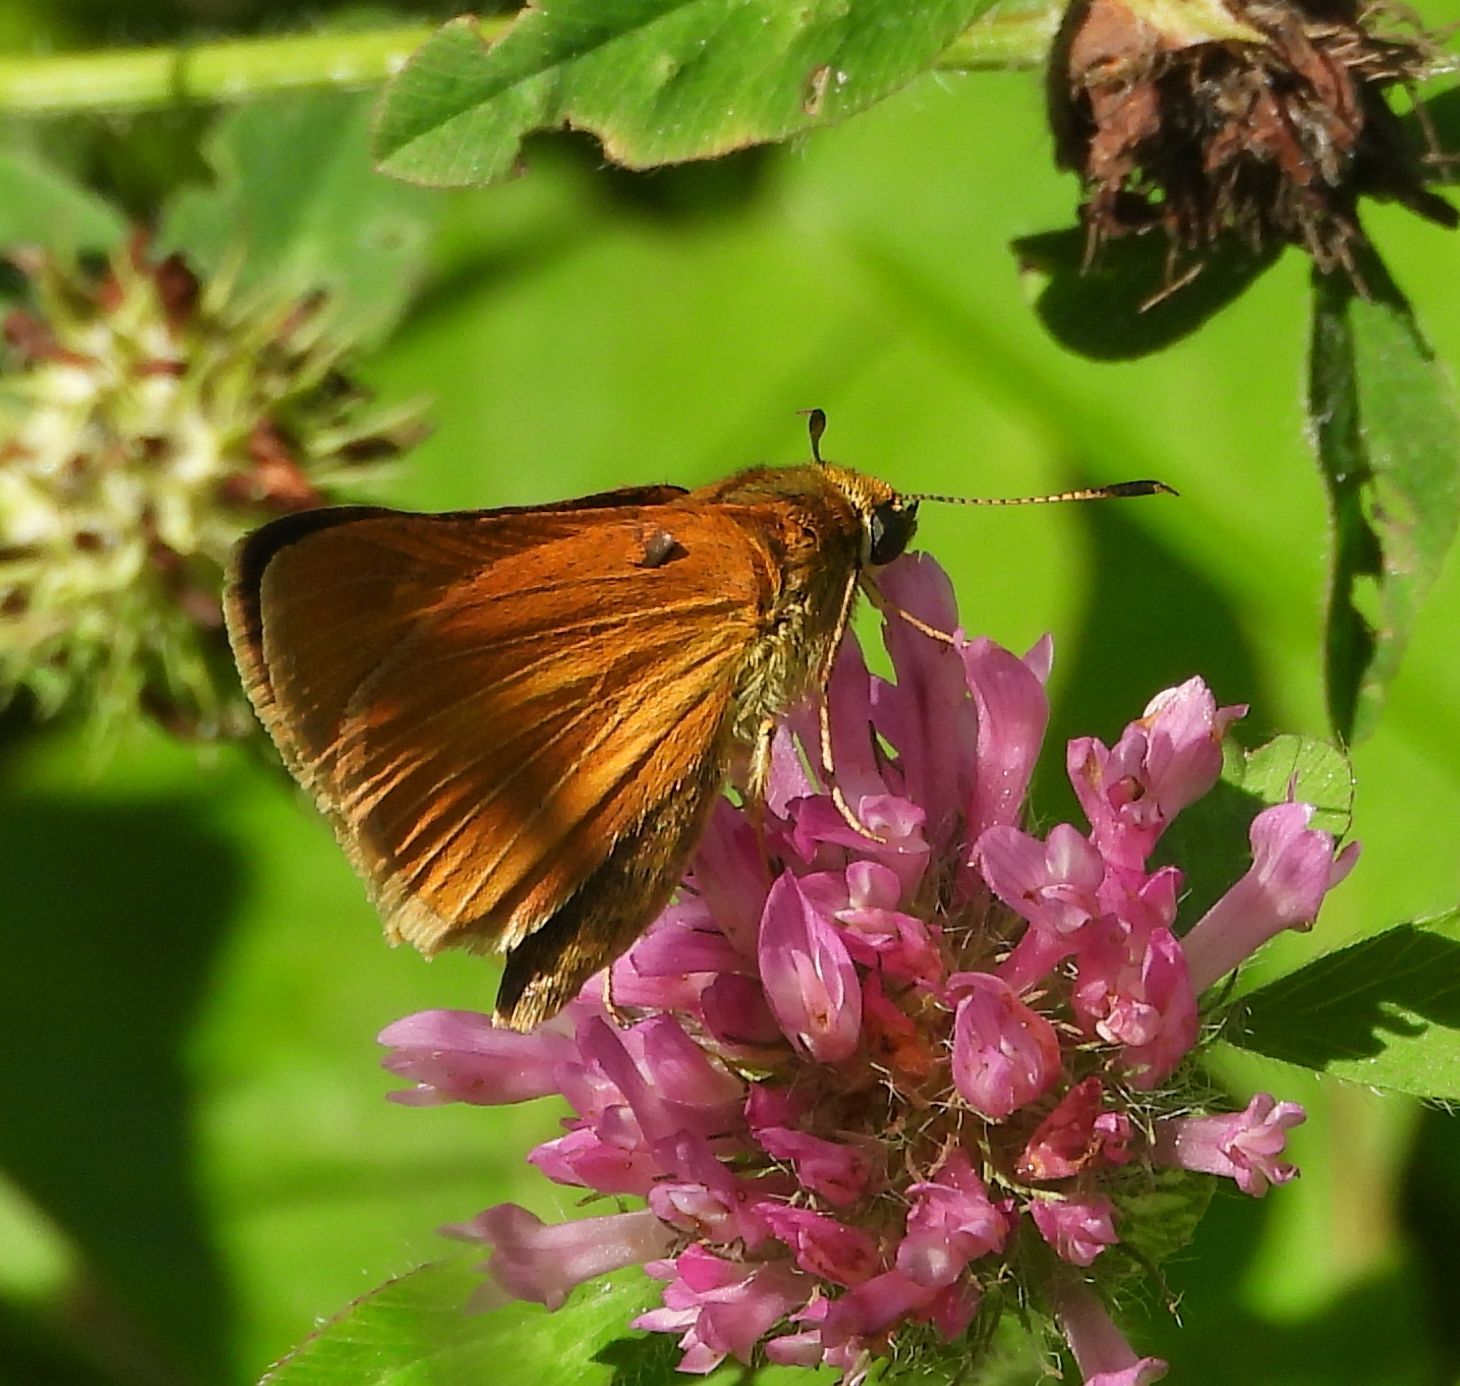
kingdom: Animalia
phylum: Arthropoda
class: Insecta
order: Lepidoptera
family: Hesperiidae
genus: Euphyes
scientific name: Euphyes dion
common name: Dion skipper
